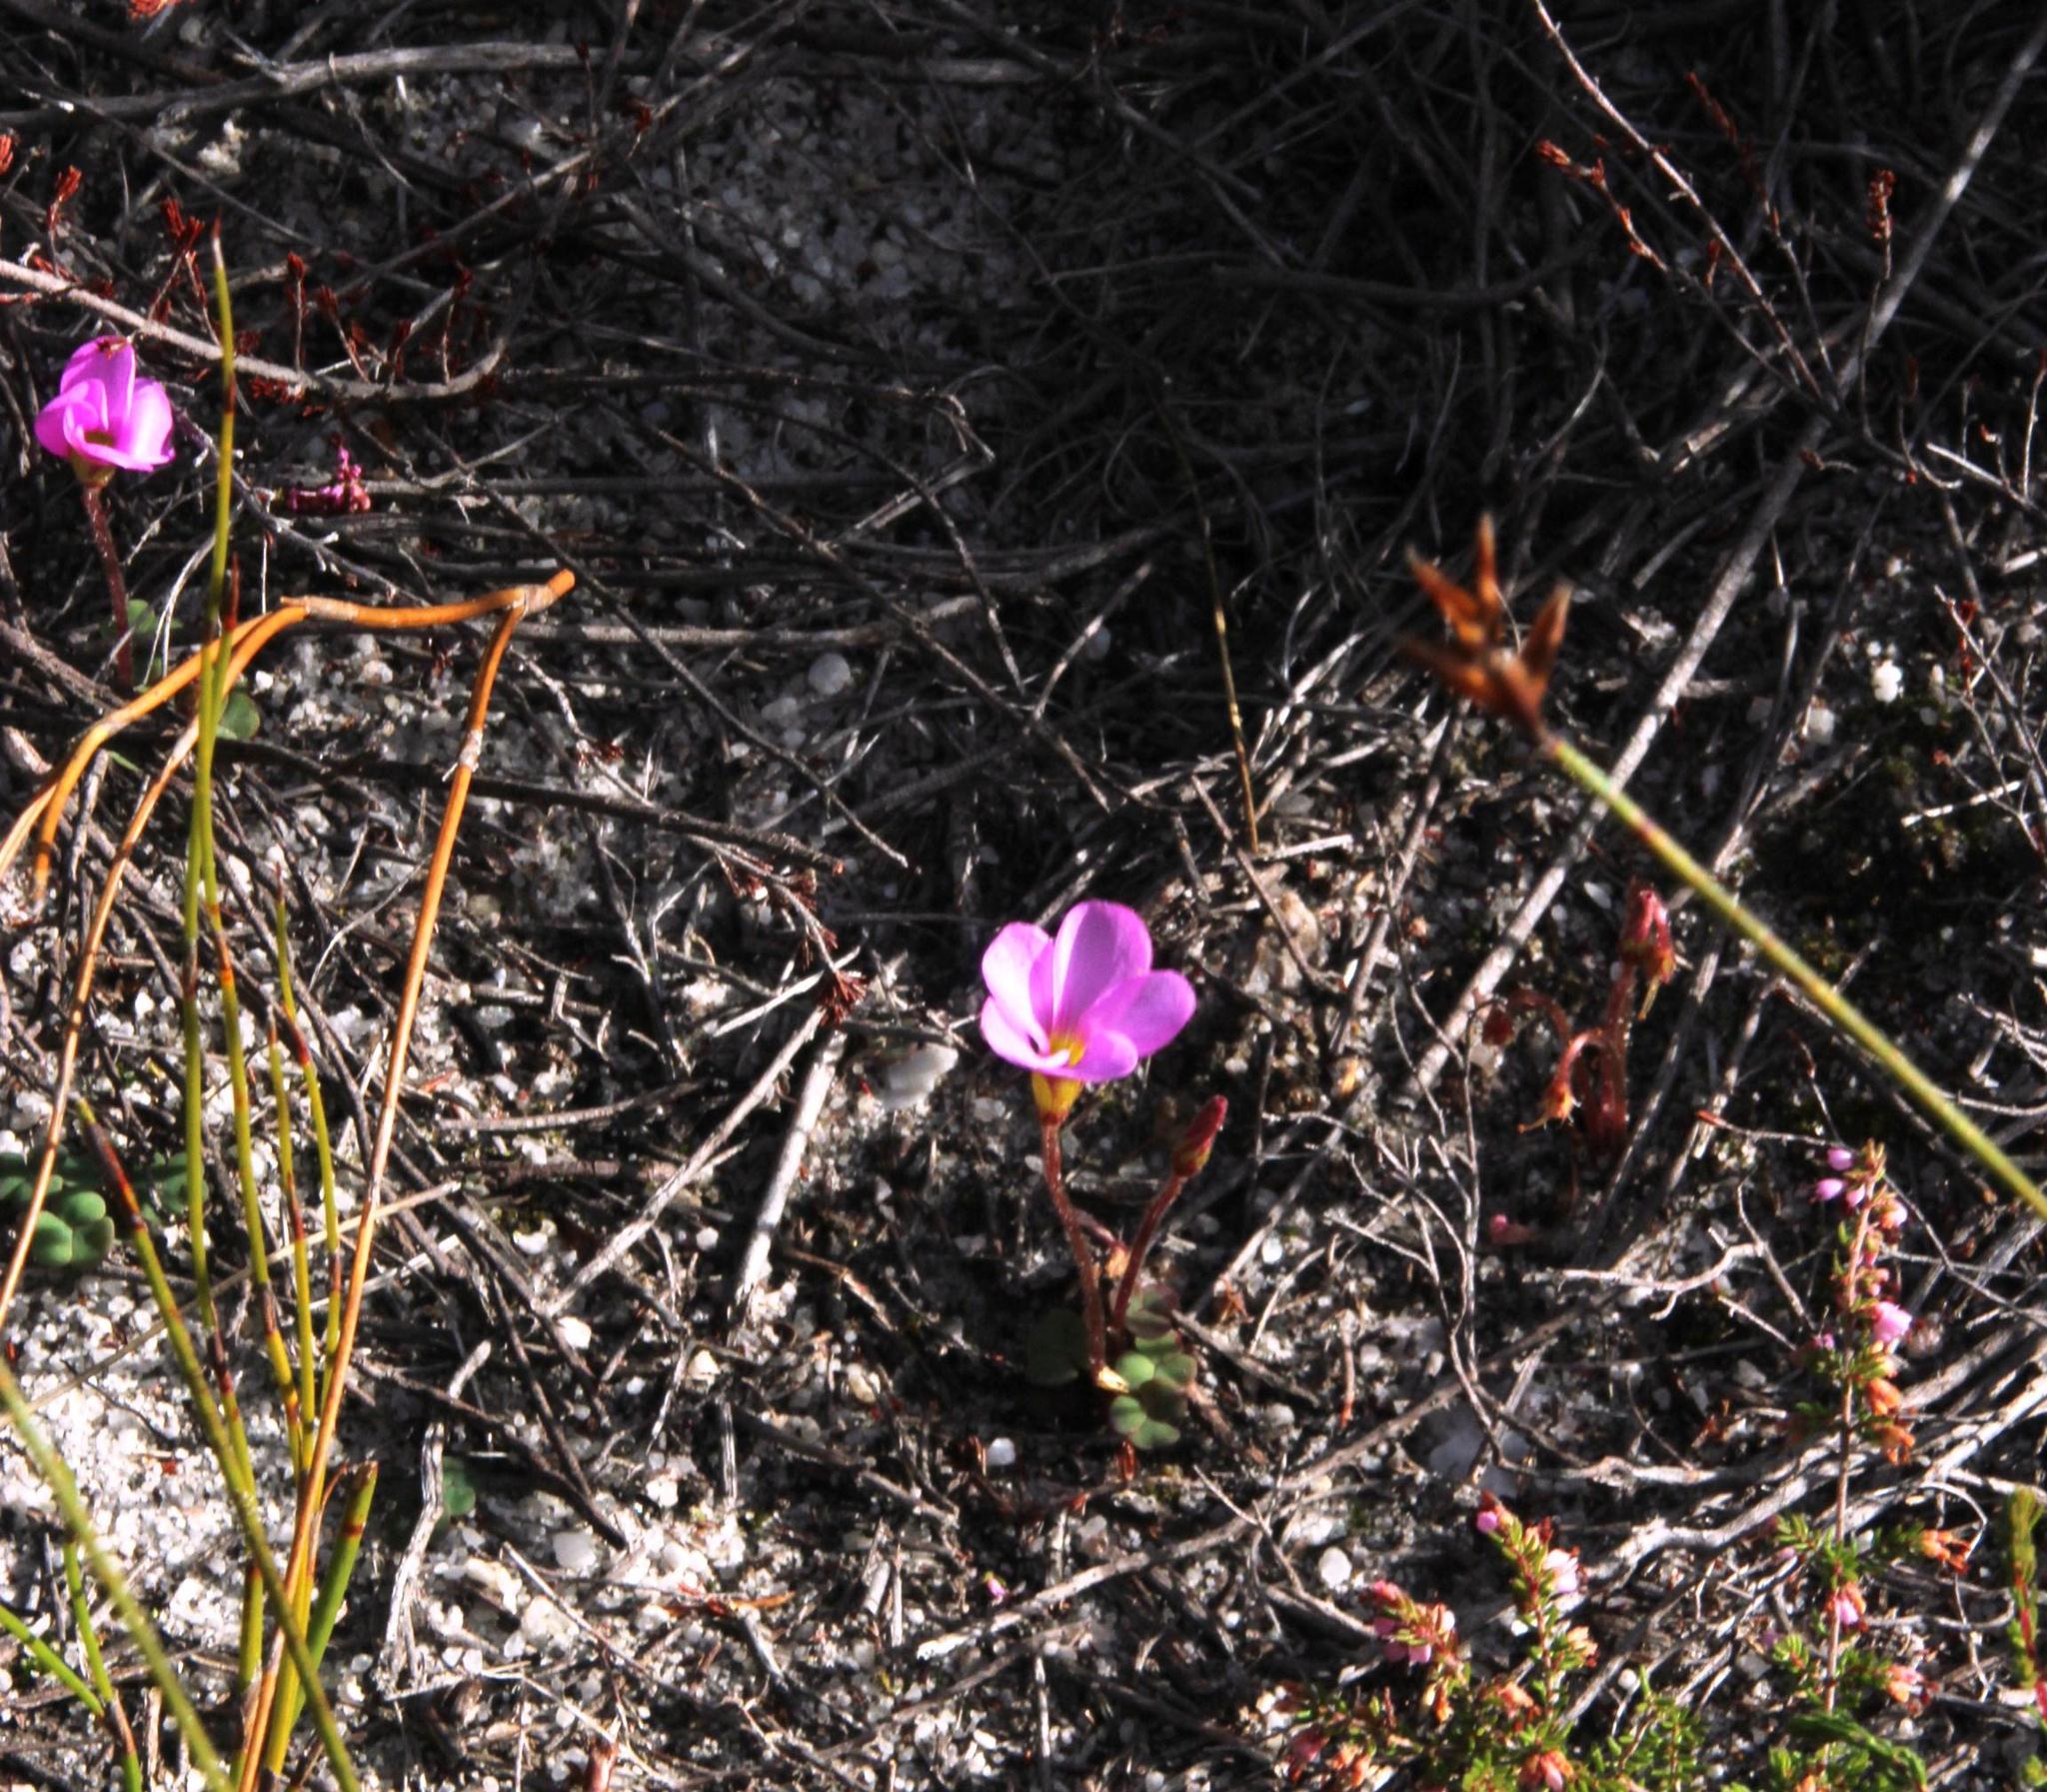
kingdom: Plantae
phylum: Tracheophyta
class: Magnoliopsida
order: Oxalidales
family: Oxalidaceae
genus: Oxalis
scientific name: Oxalis punctata
